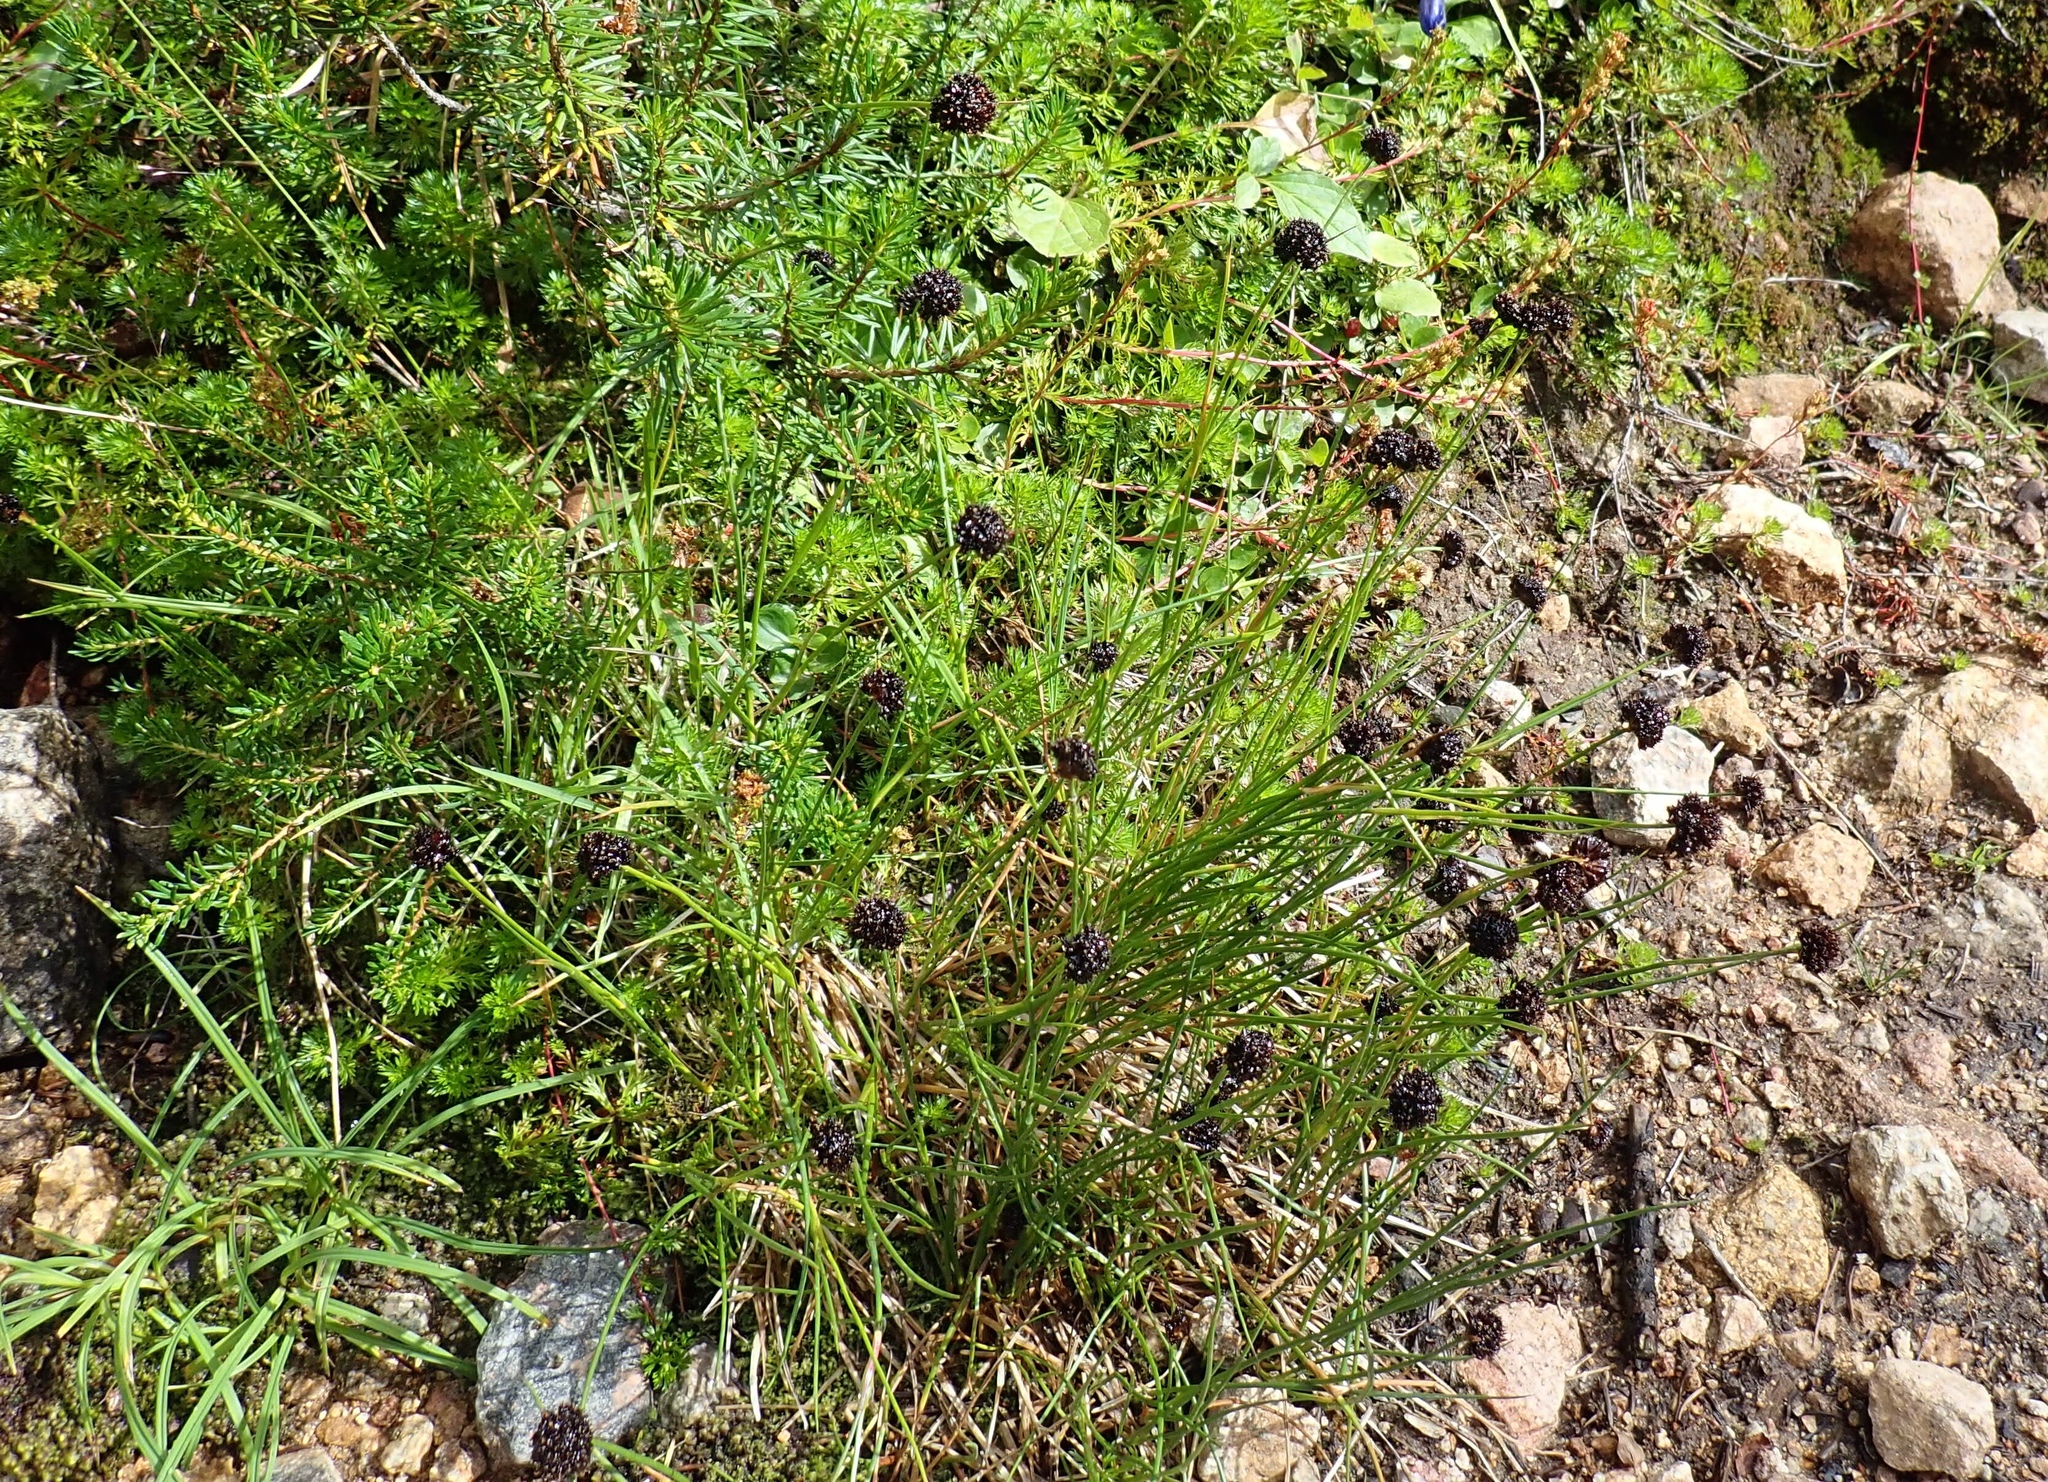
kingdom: Plantae
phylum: Tracheophyta
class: Liliopsida
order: Poales
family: Juncaceae
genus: Juncus
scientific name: Juncus mertensianus
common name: Merten's rush
